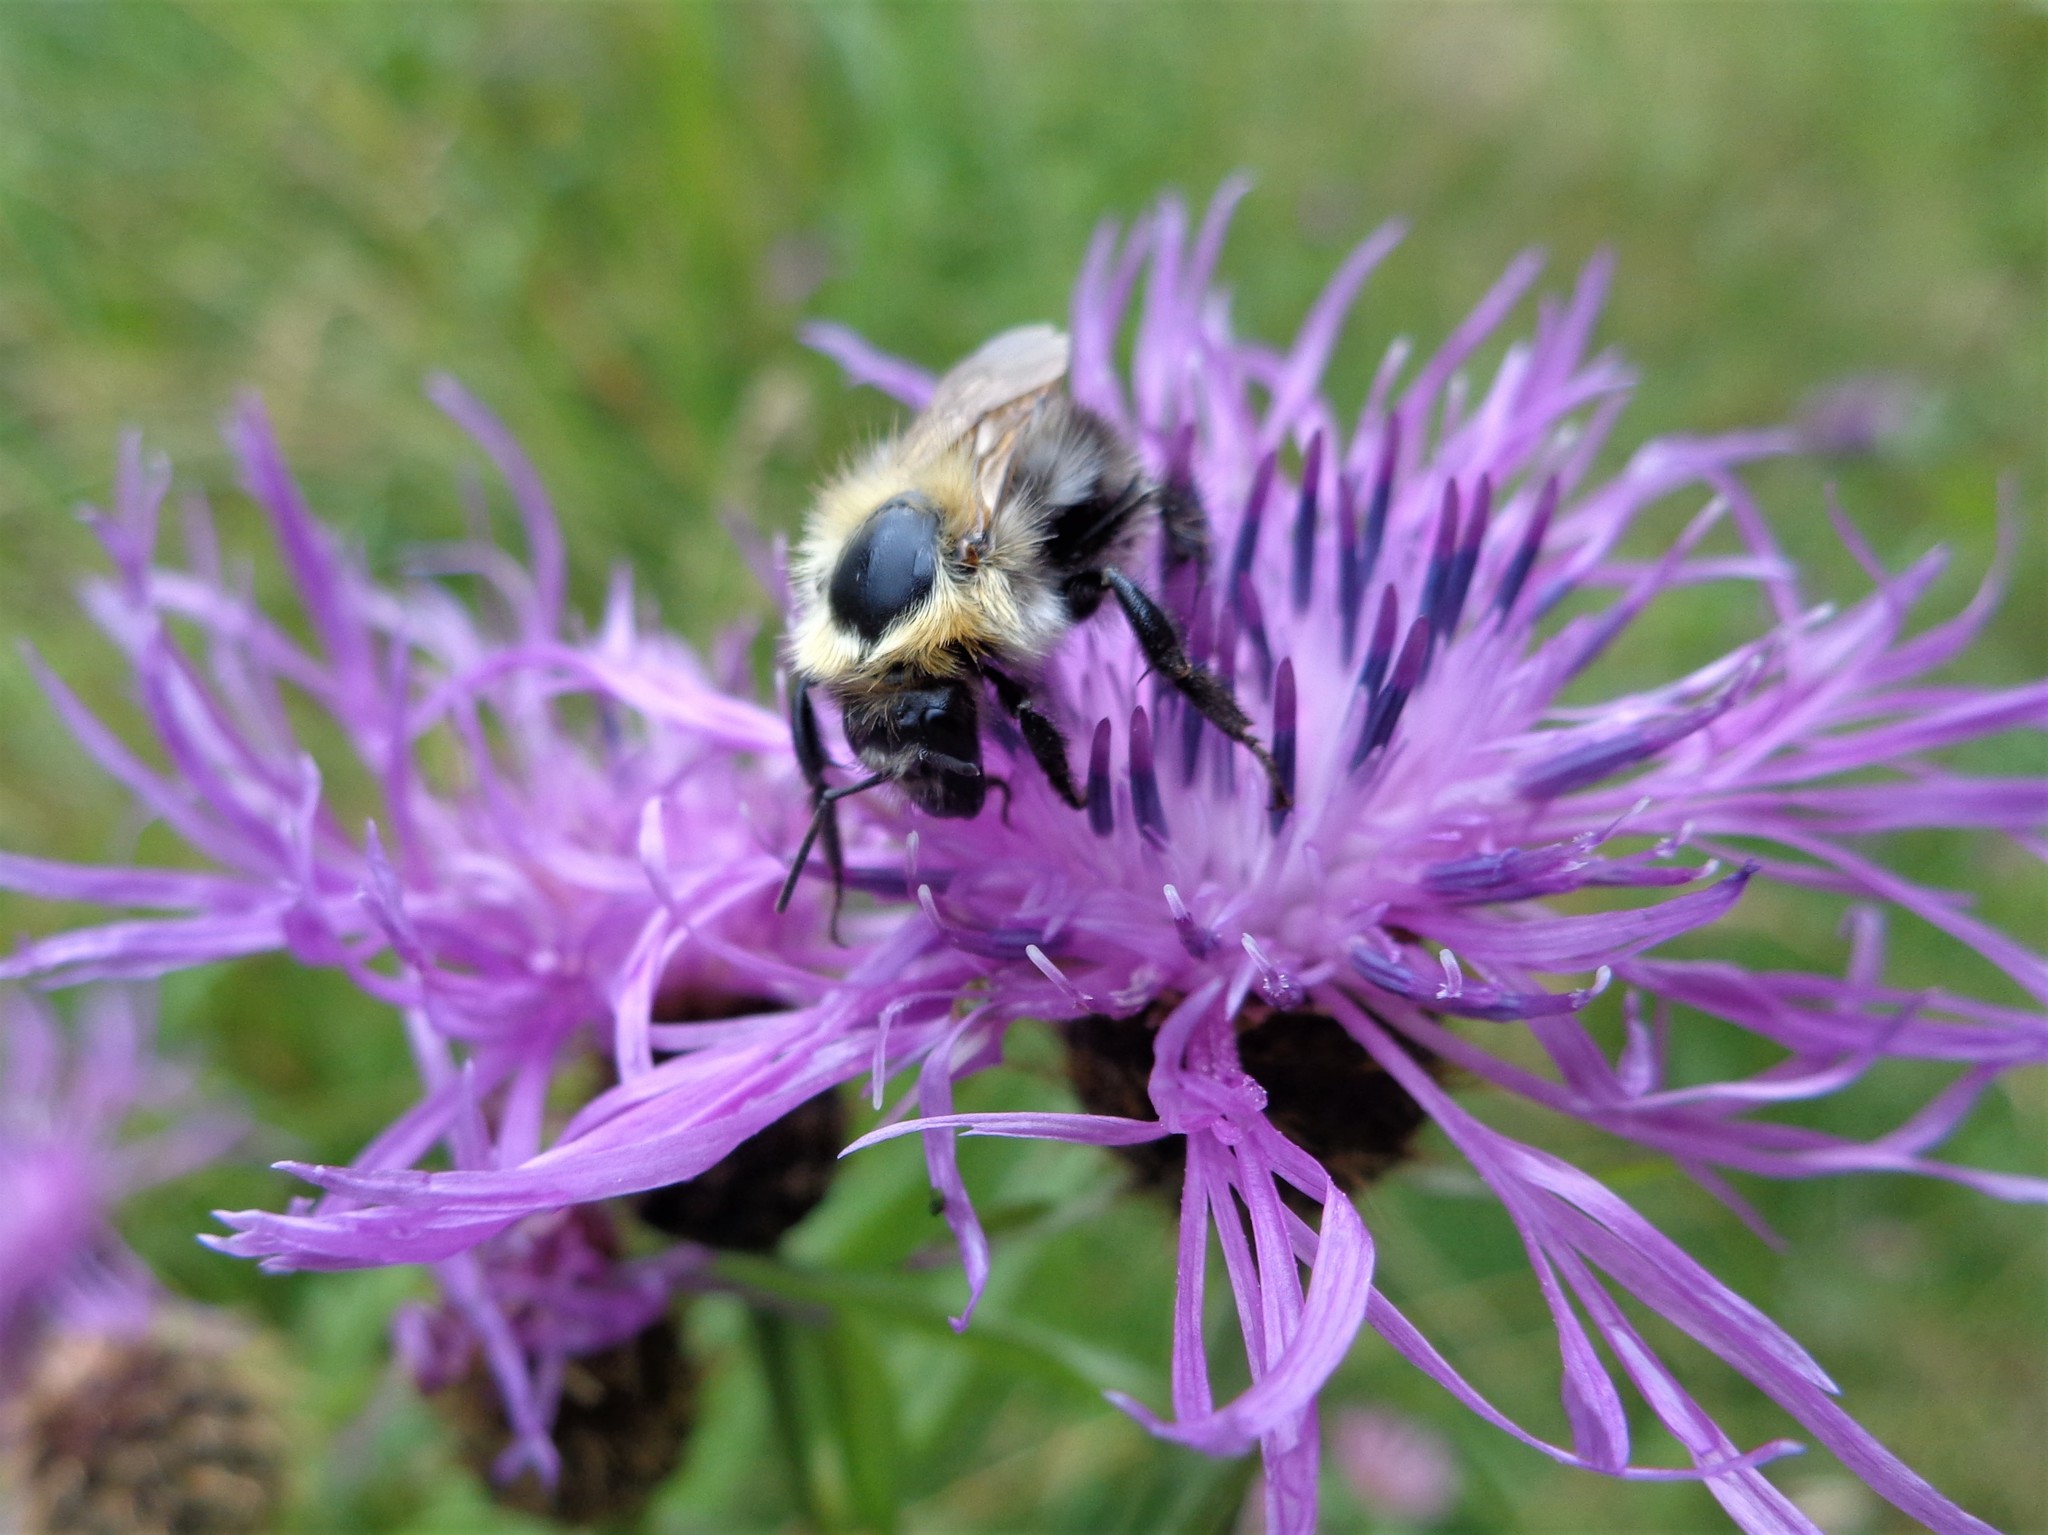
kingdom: Animalia
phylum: Arthropoda
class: Insecta
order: Hymenoptera
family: Apidae
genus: Bombus
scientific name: Bombus pascuorum
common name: Common carder bee
